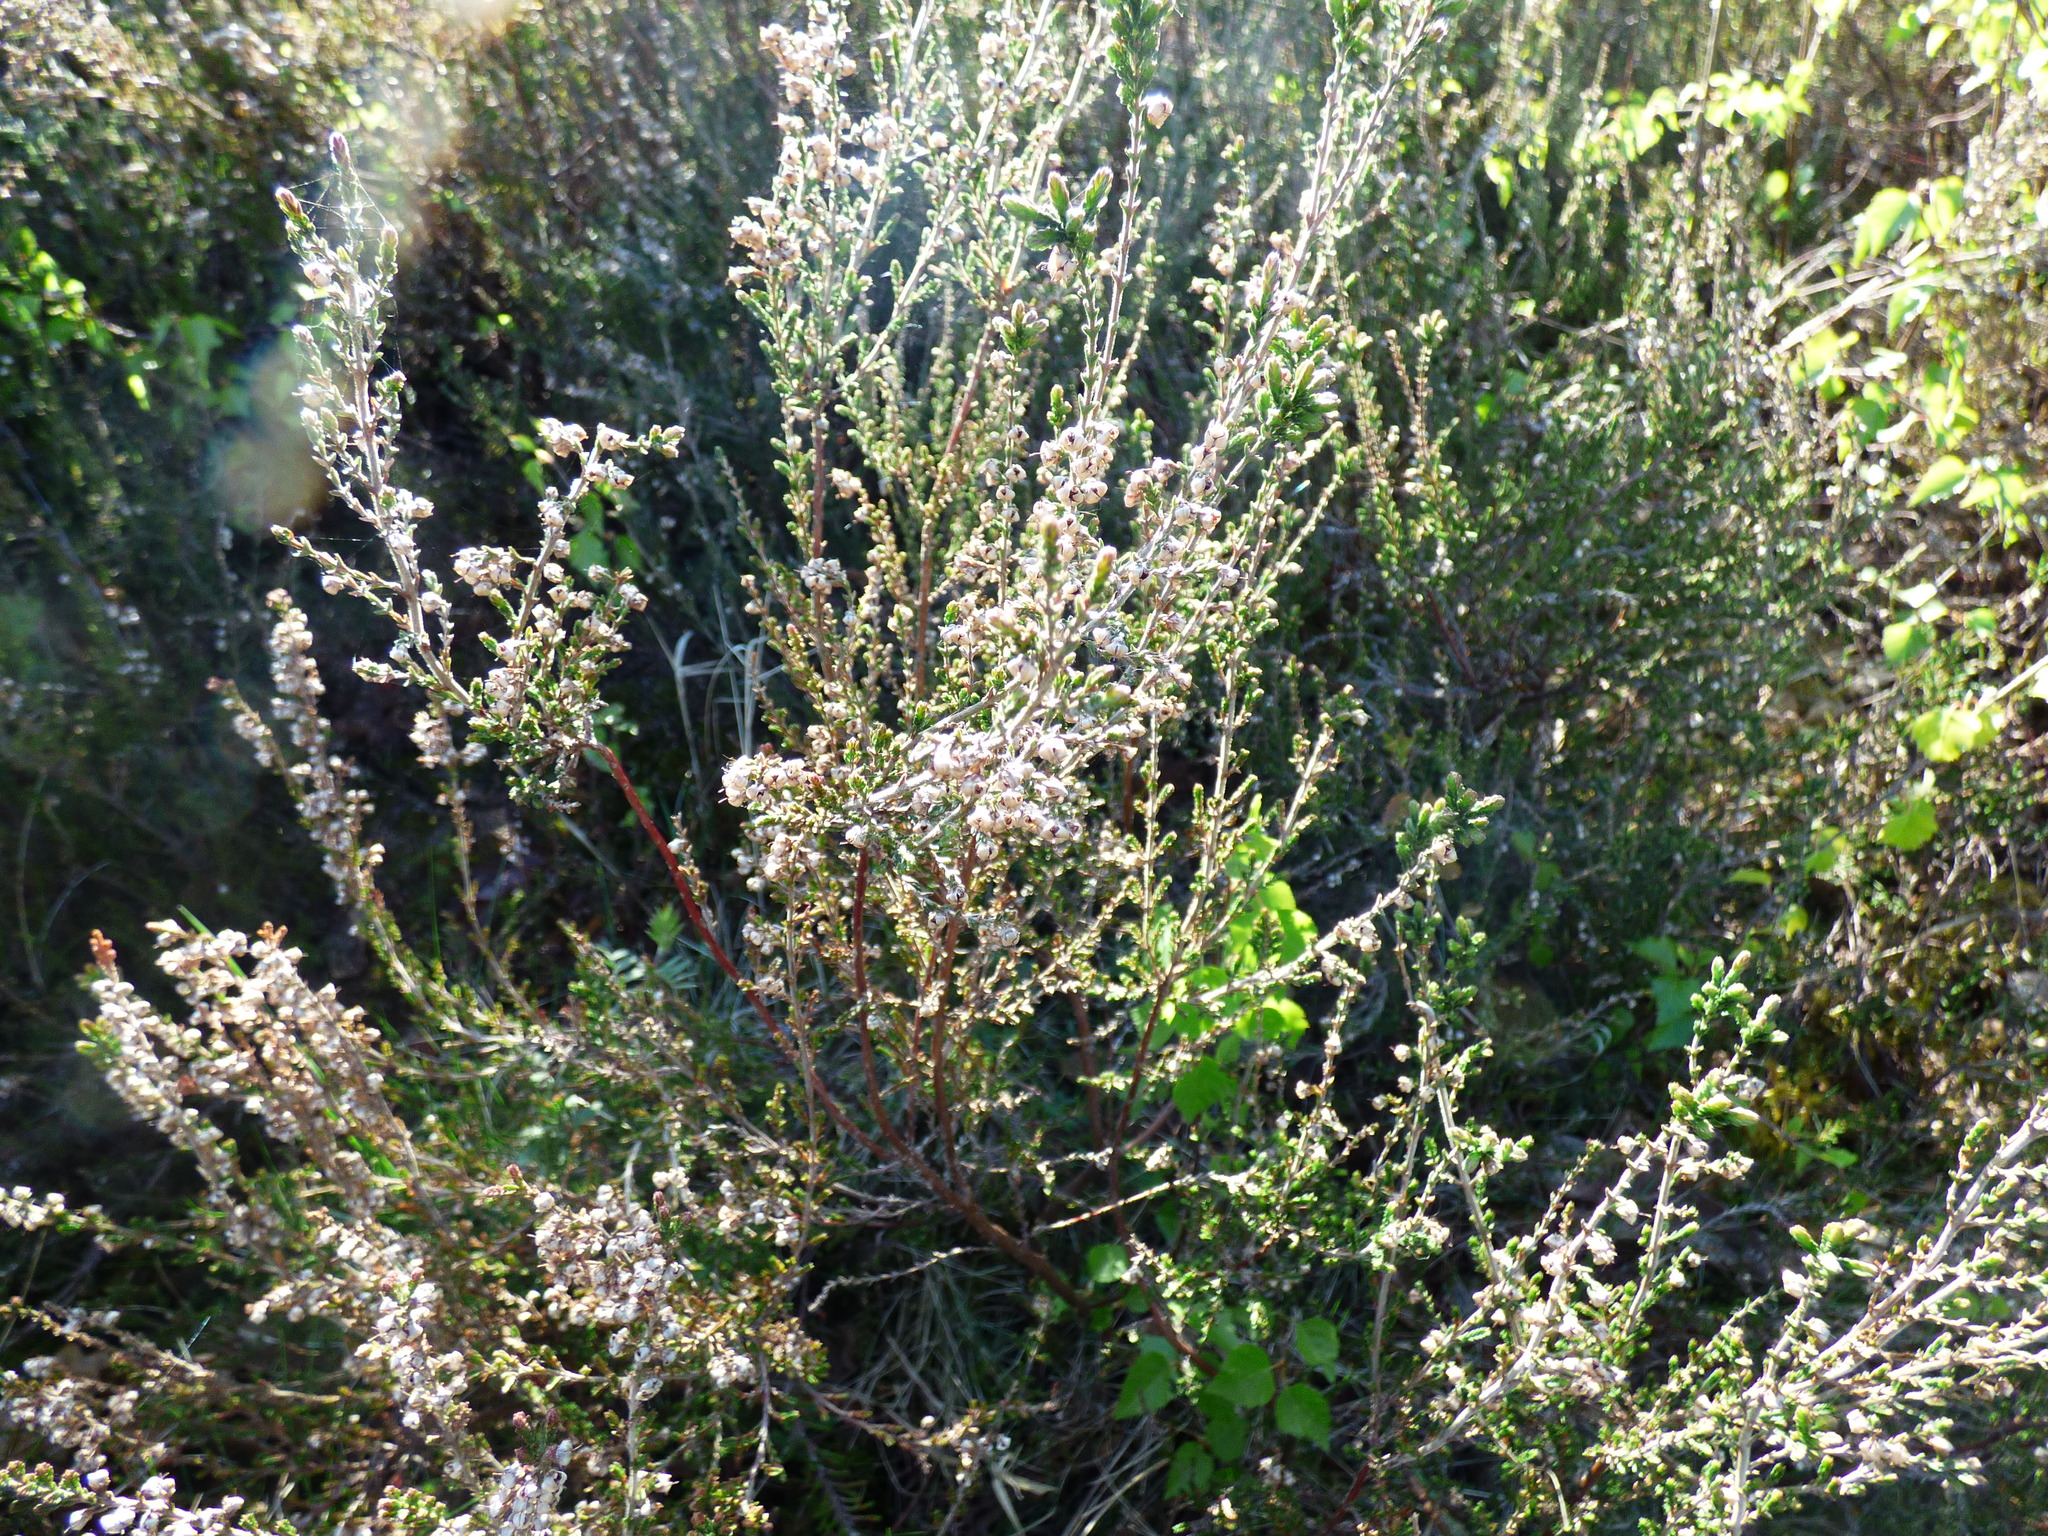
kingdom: Plantae
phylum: Tracheophyta
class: Magnoliopsida
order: Ericales
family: Ericaceae
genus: Calluna
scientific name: Calluna vulgaris
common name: Heather
